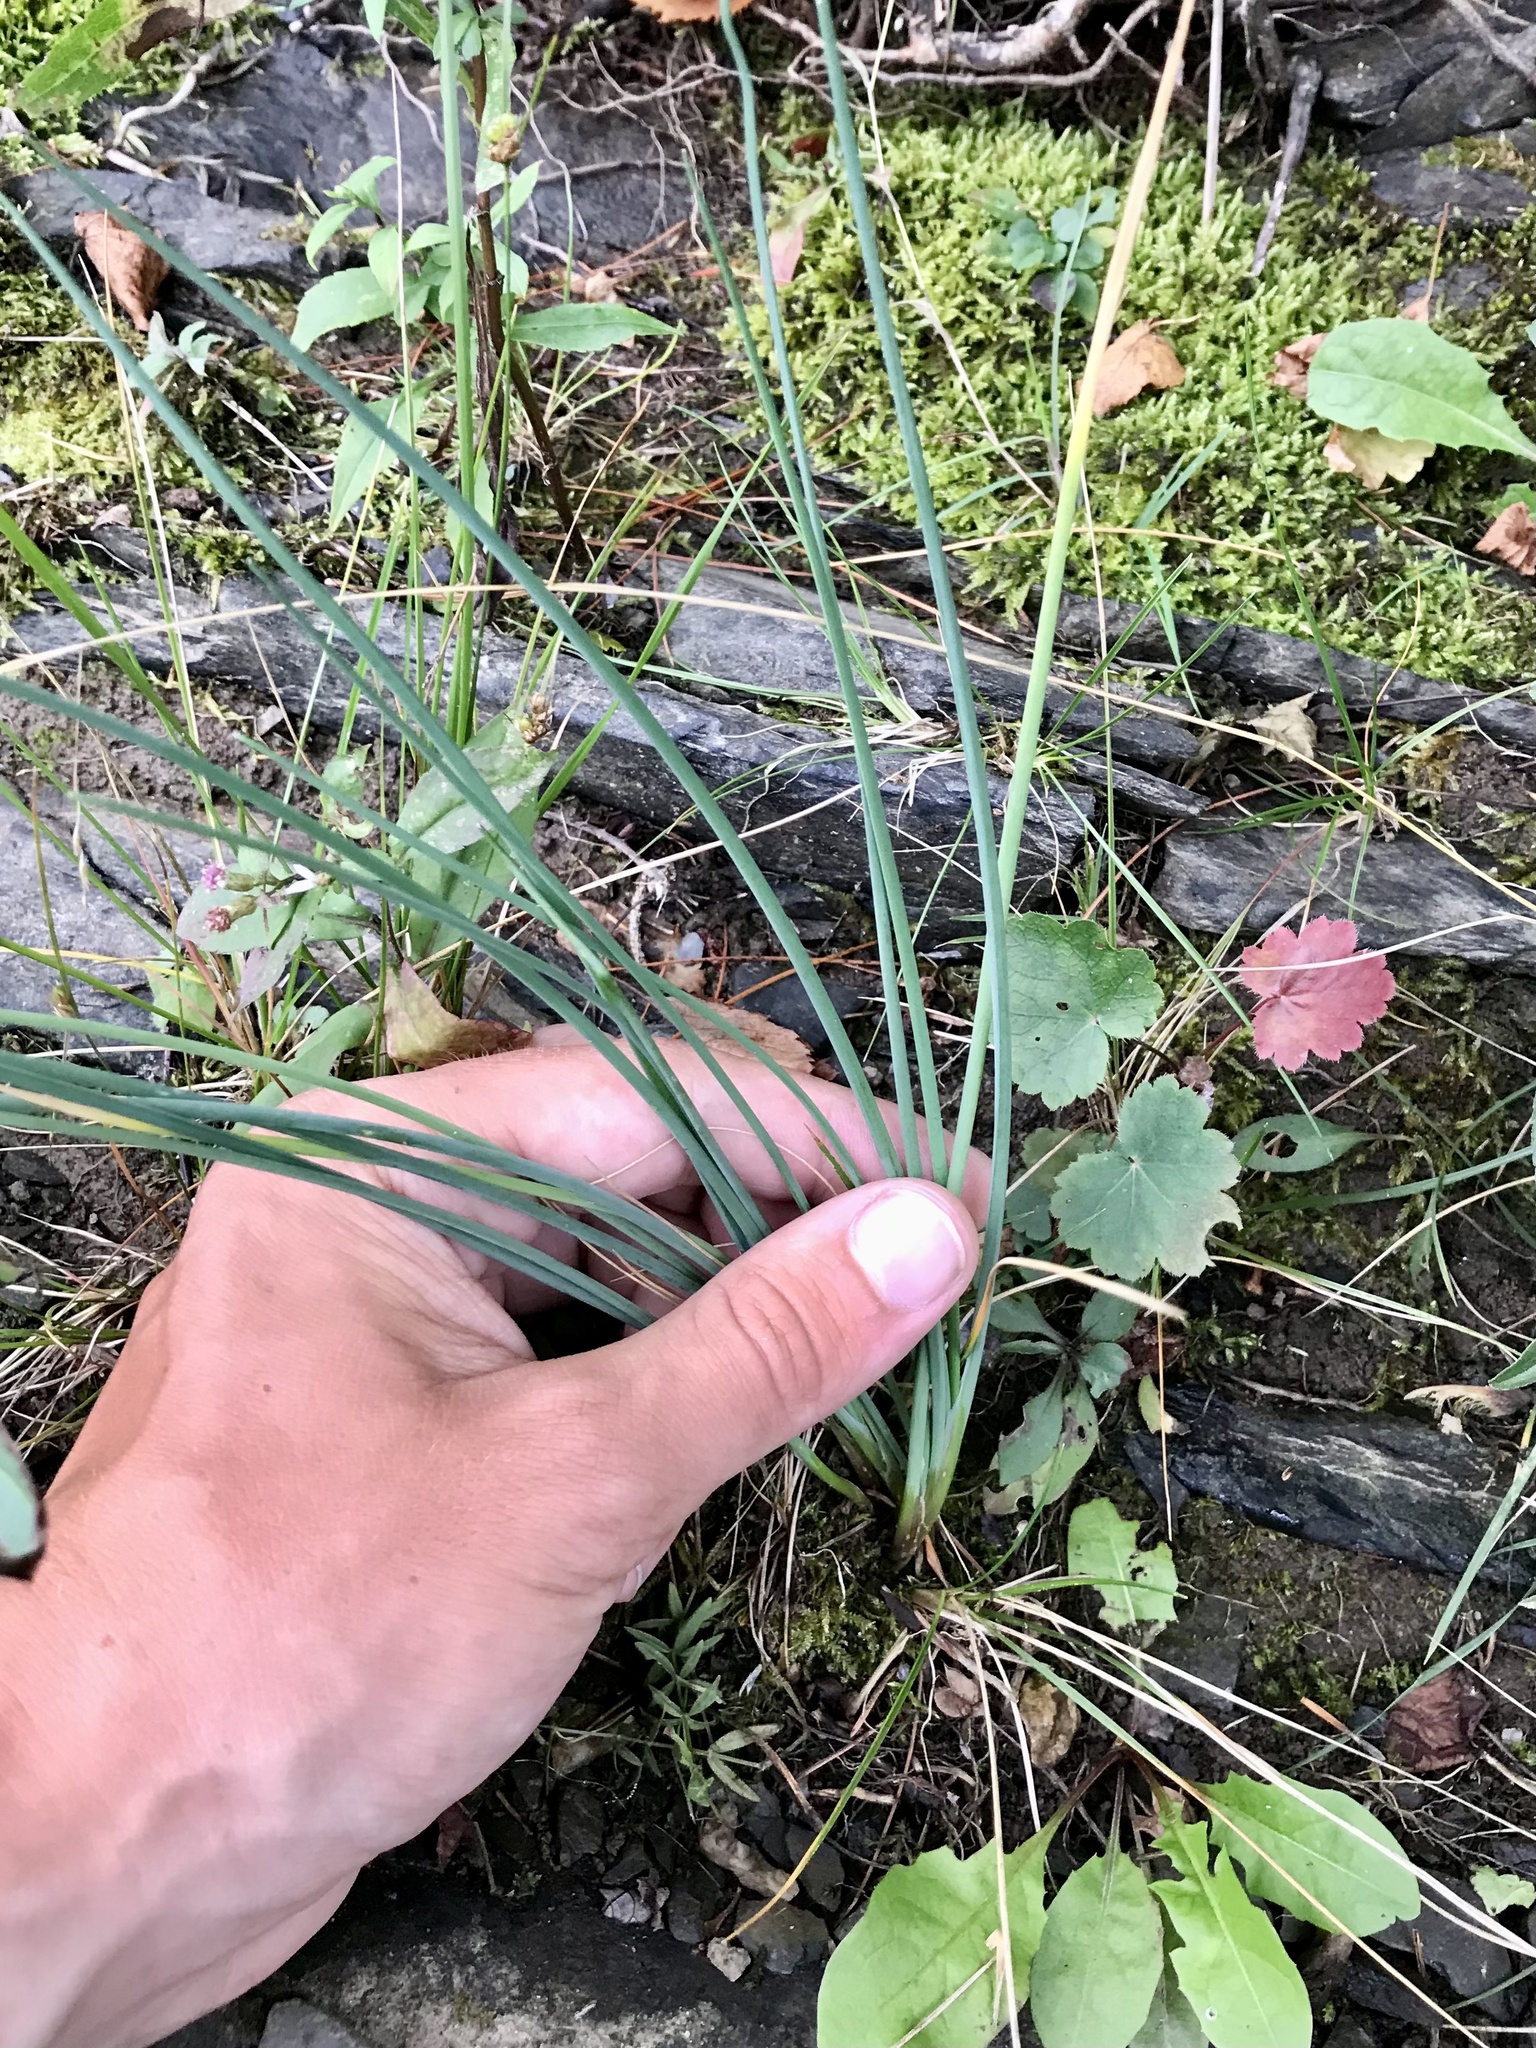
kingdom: Plantae
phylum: Tracheophyta
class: Liliopsida
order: Asparagales
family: Amaryllidaceae
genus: Allium
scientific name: Allium schoenoprasum
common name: Chives
